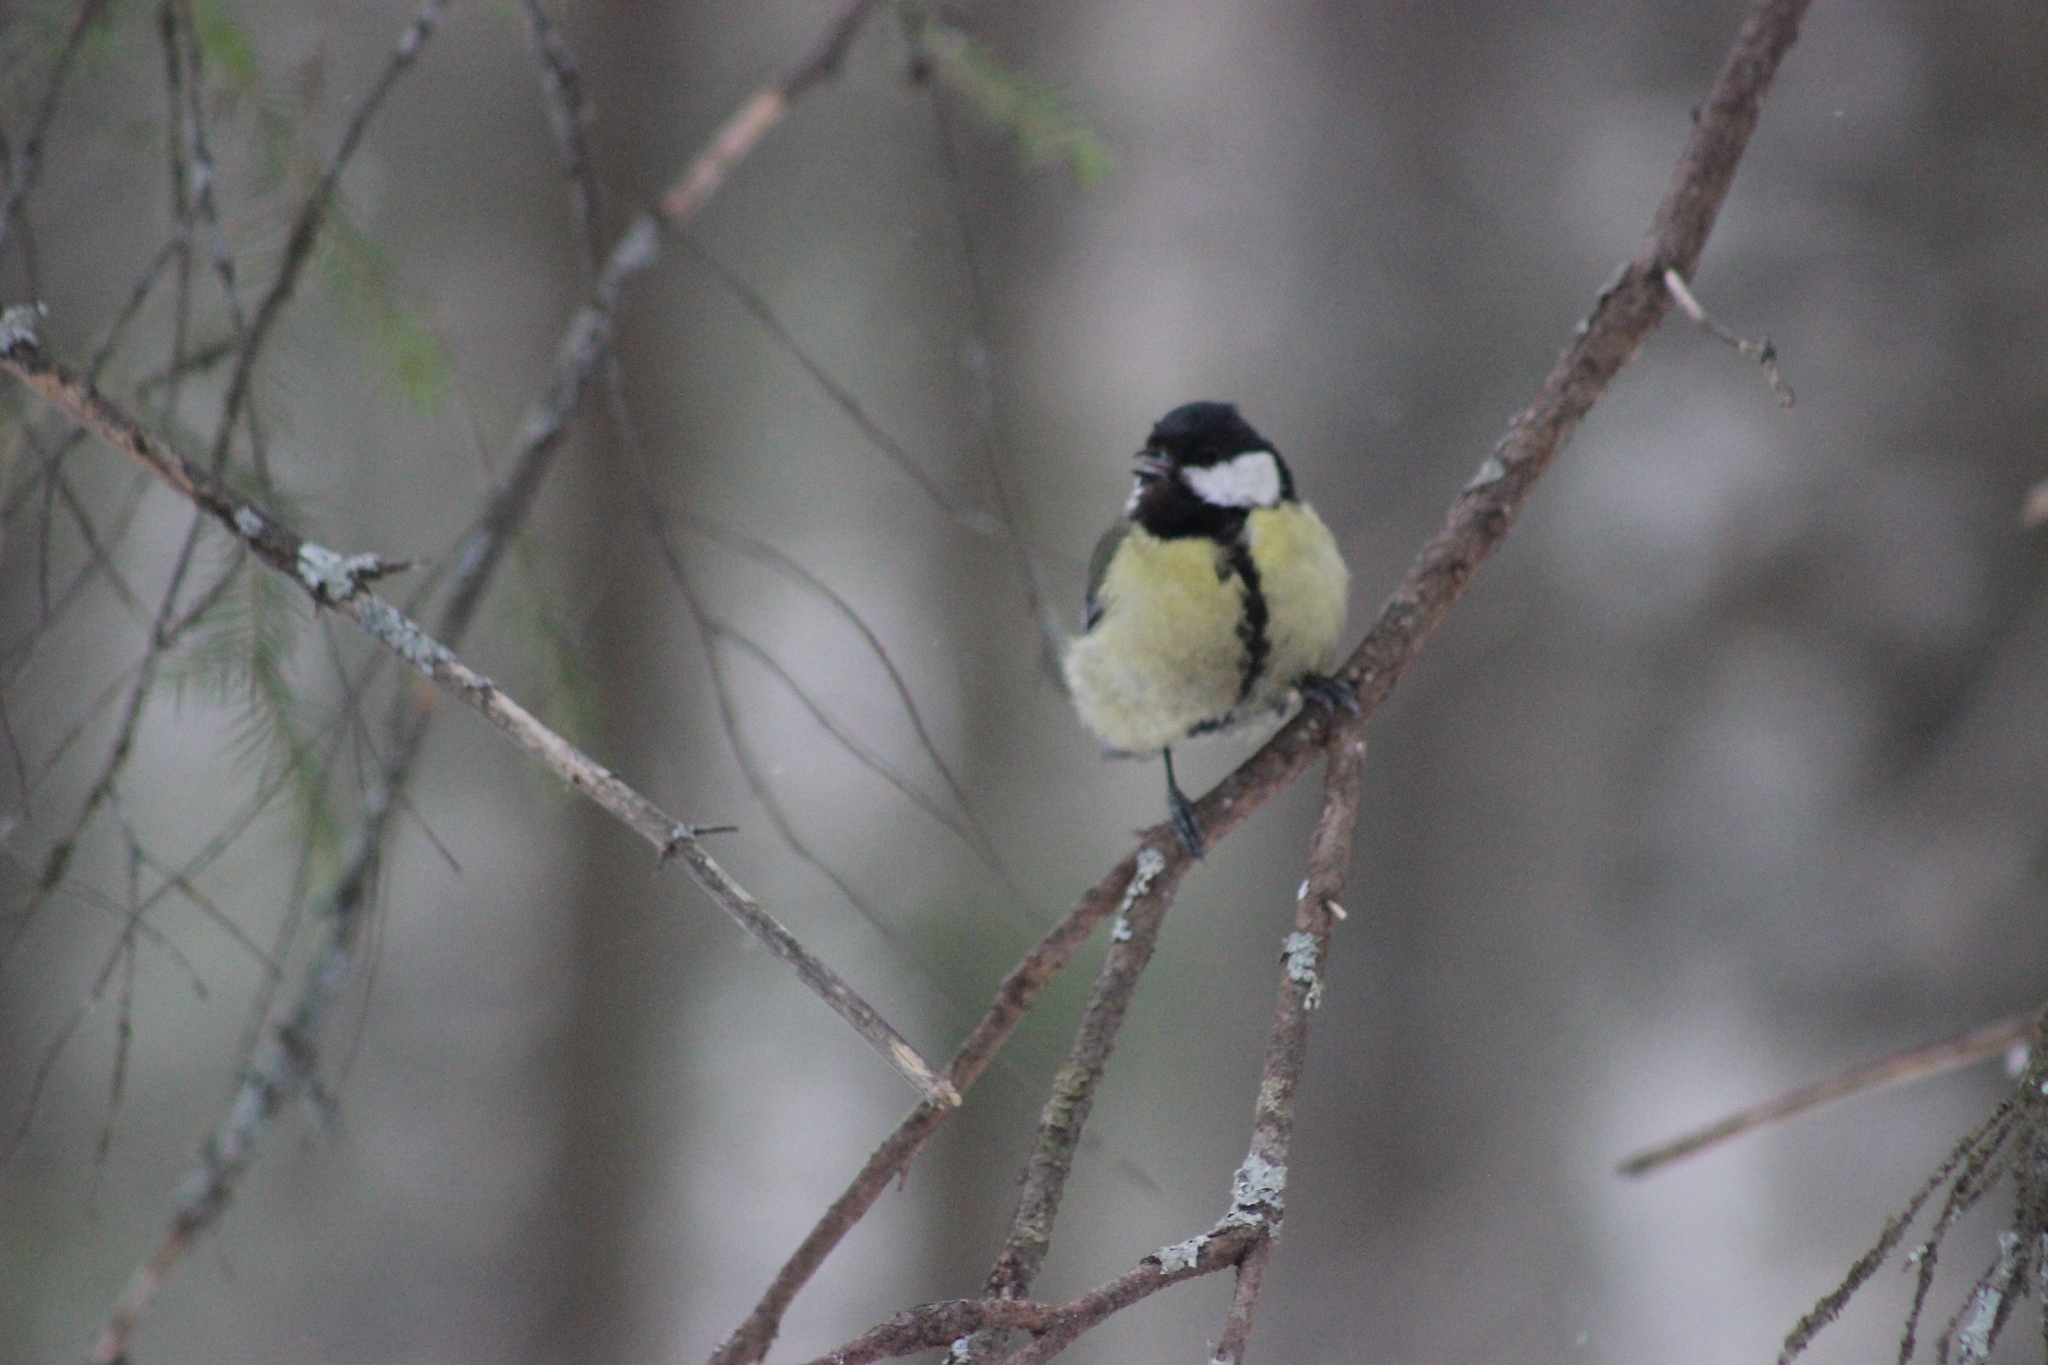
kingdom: Animalia
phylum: Chordata
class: Aves
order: Passeriformes
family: Paridae
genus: Parus
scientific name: Parus major
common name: Great tit
